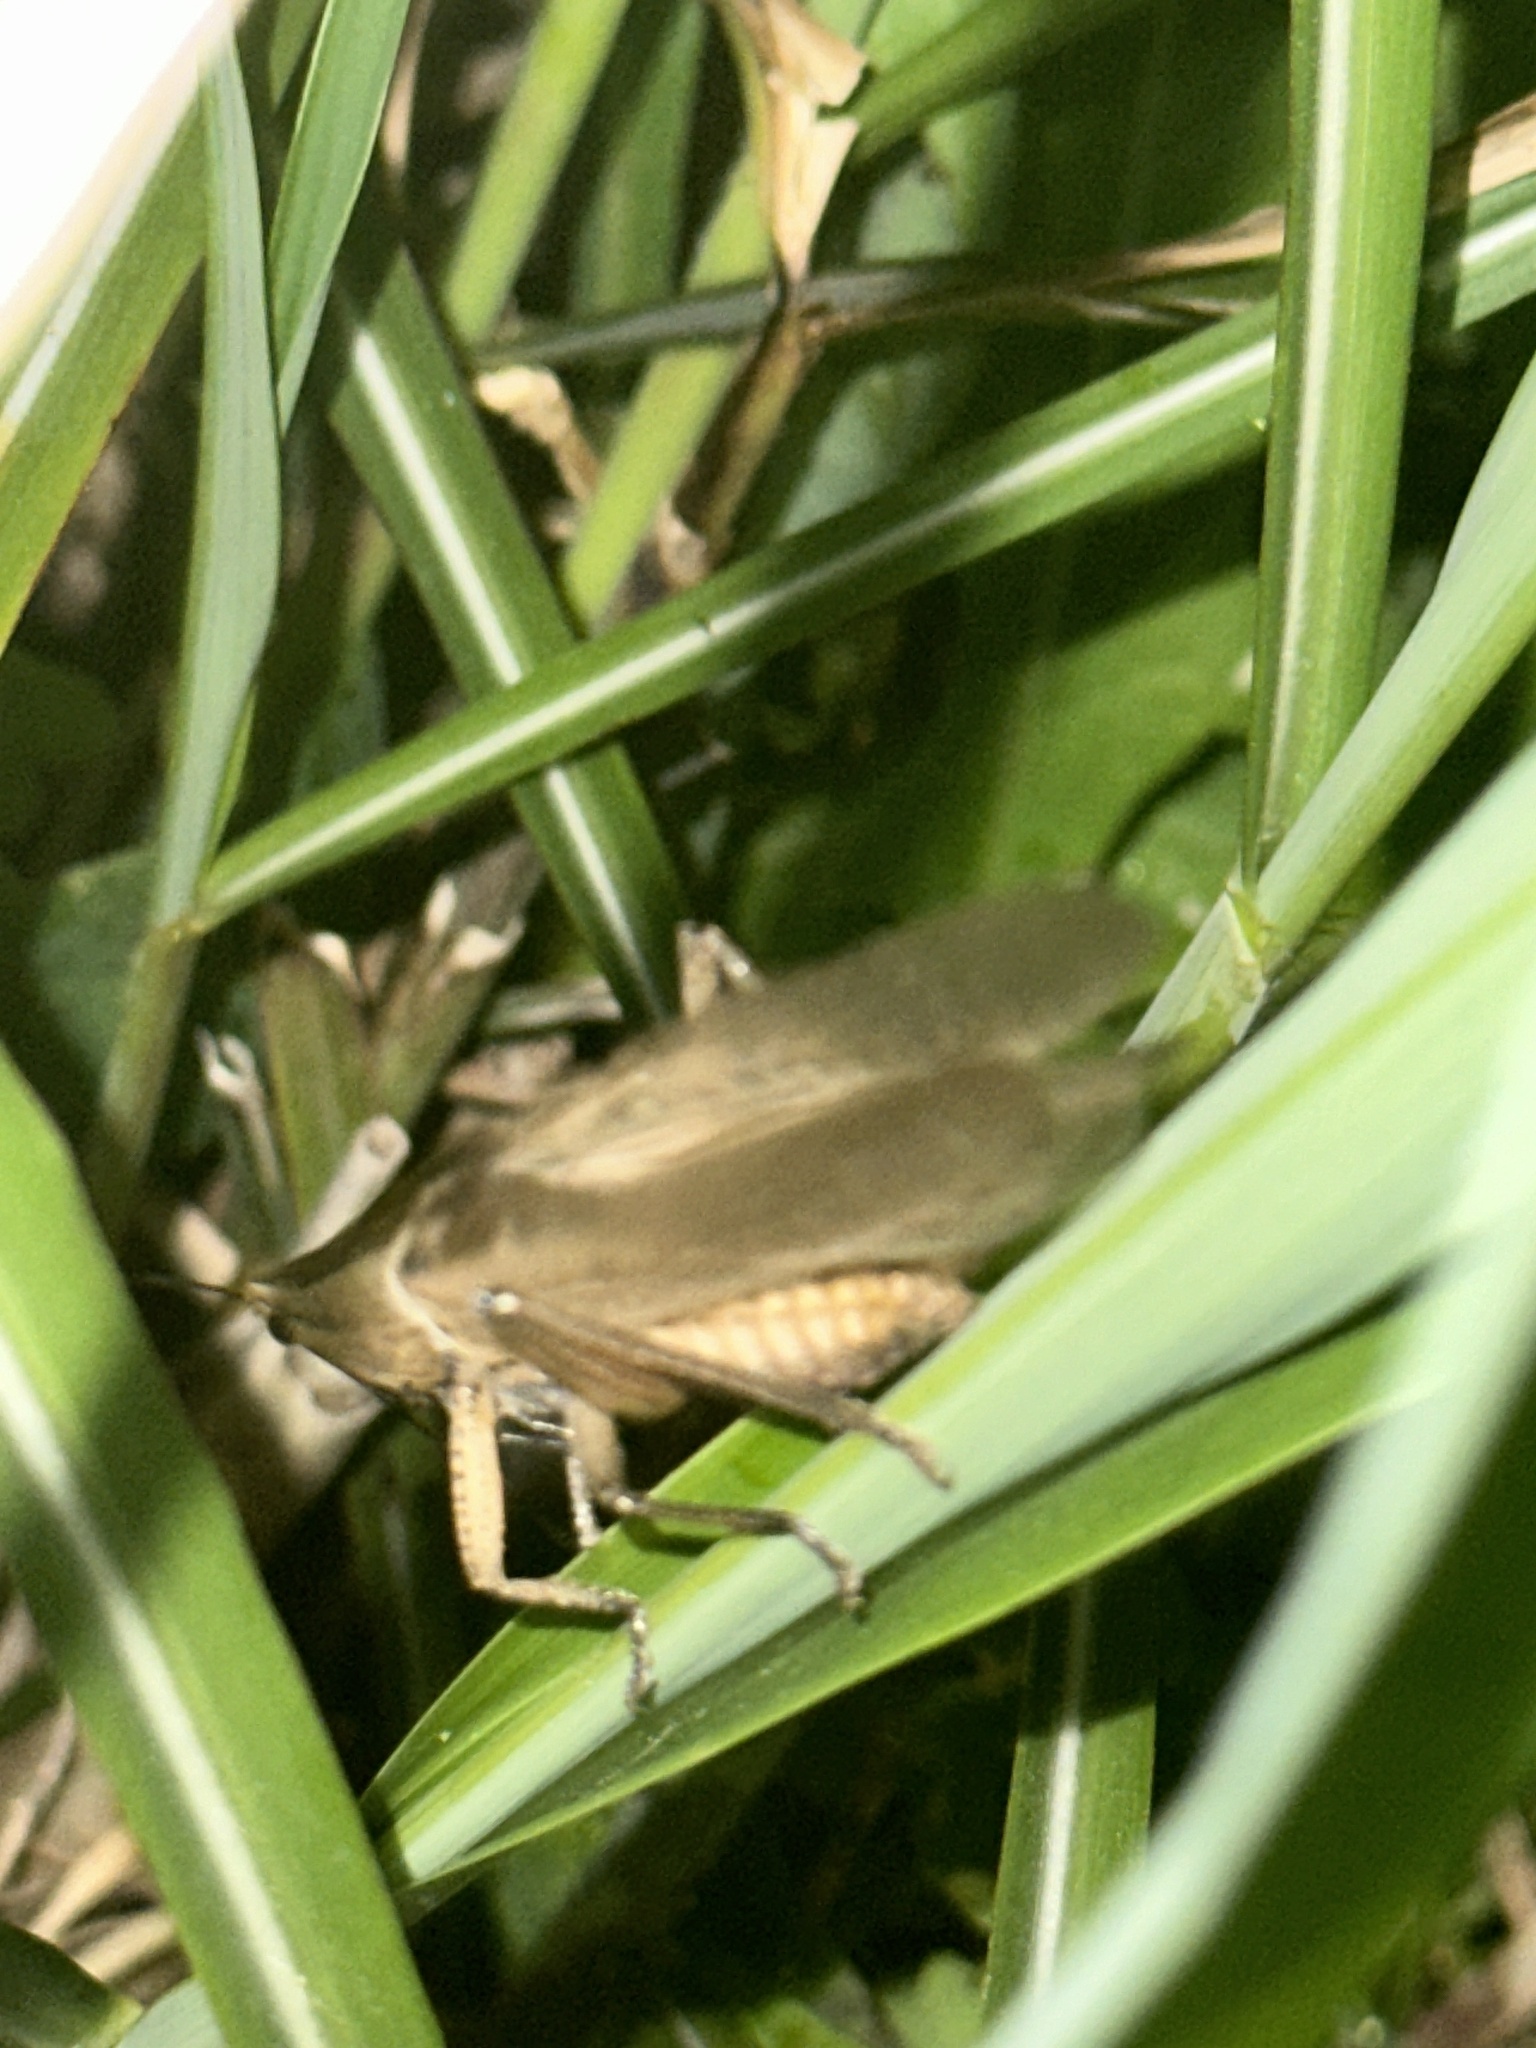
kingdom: Animalia
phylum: Arthropoda
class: Insecta
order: Orthoptera
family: Tettigoniidae
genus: Xestophrys
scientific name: Xestophrys javanicus
